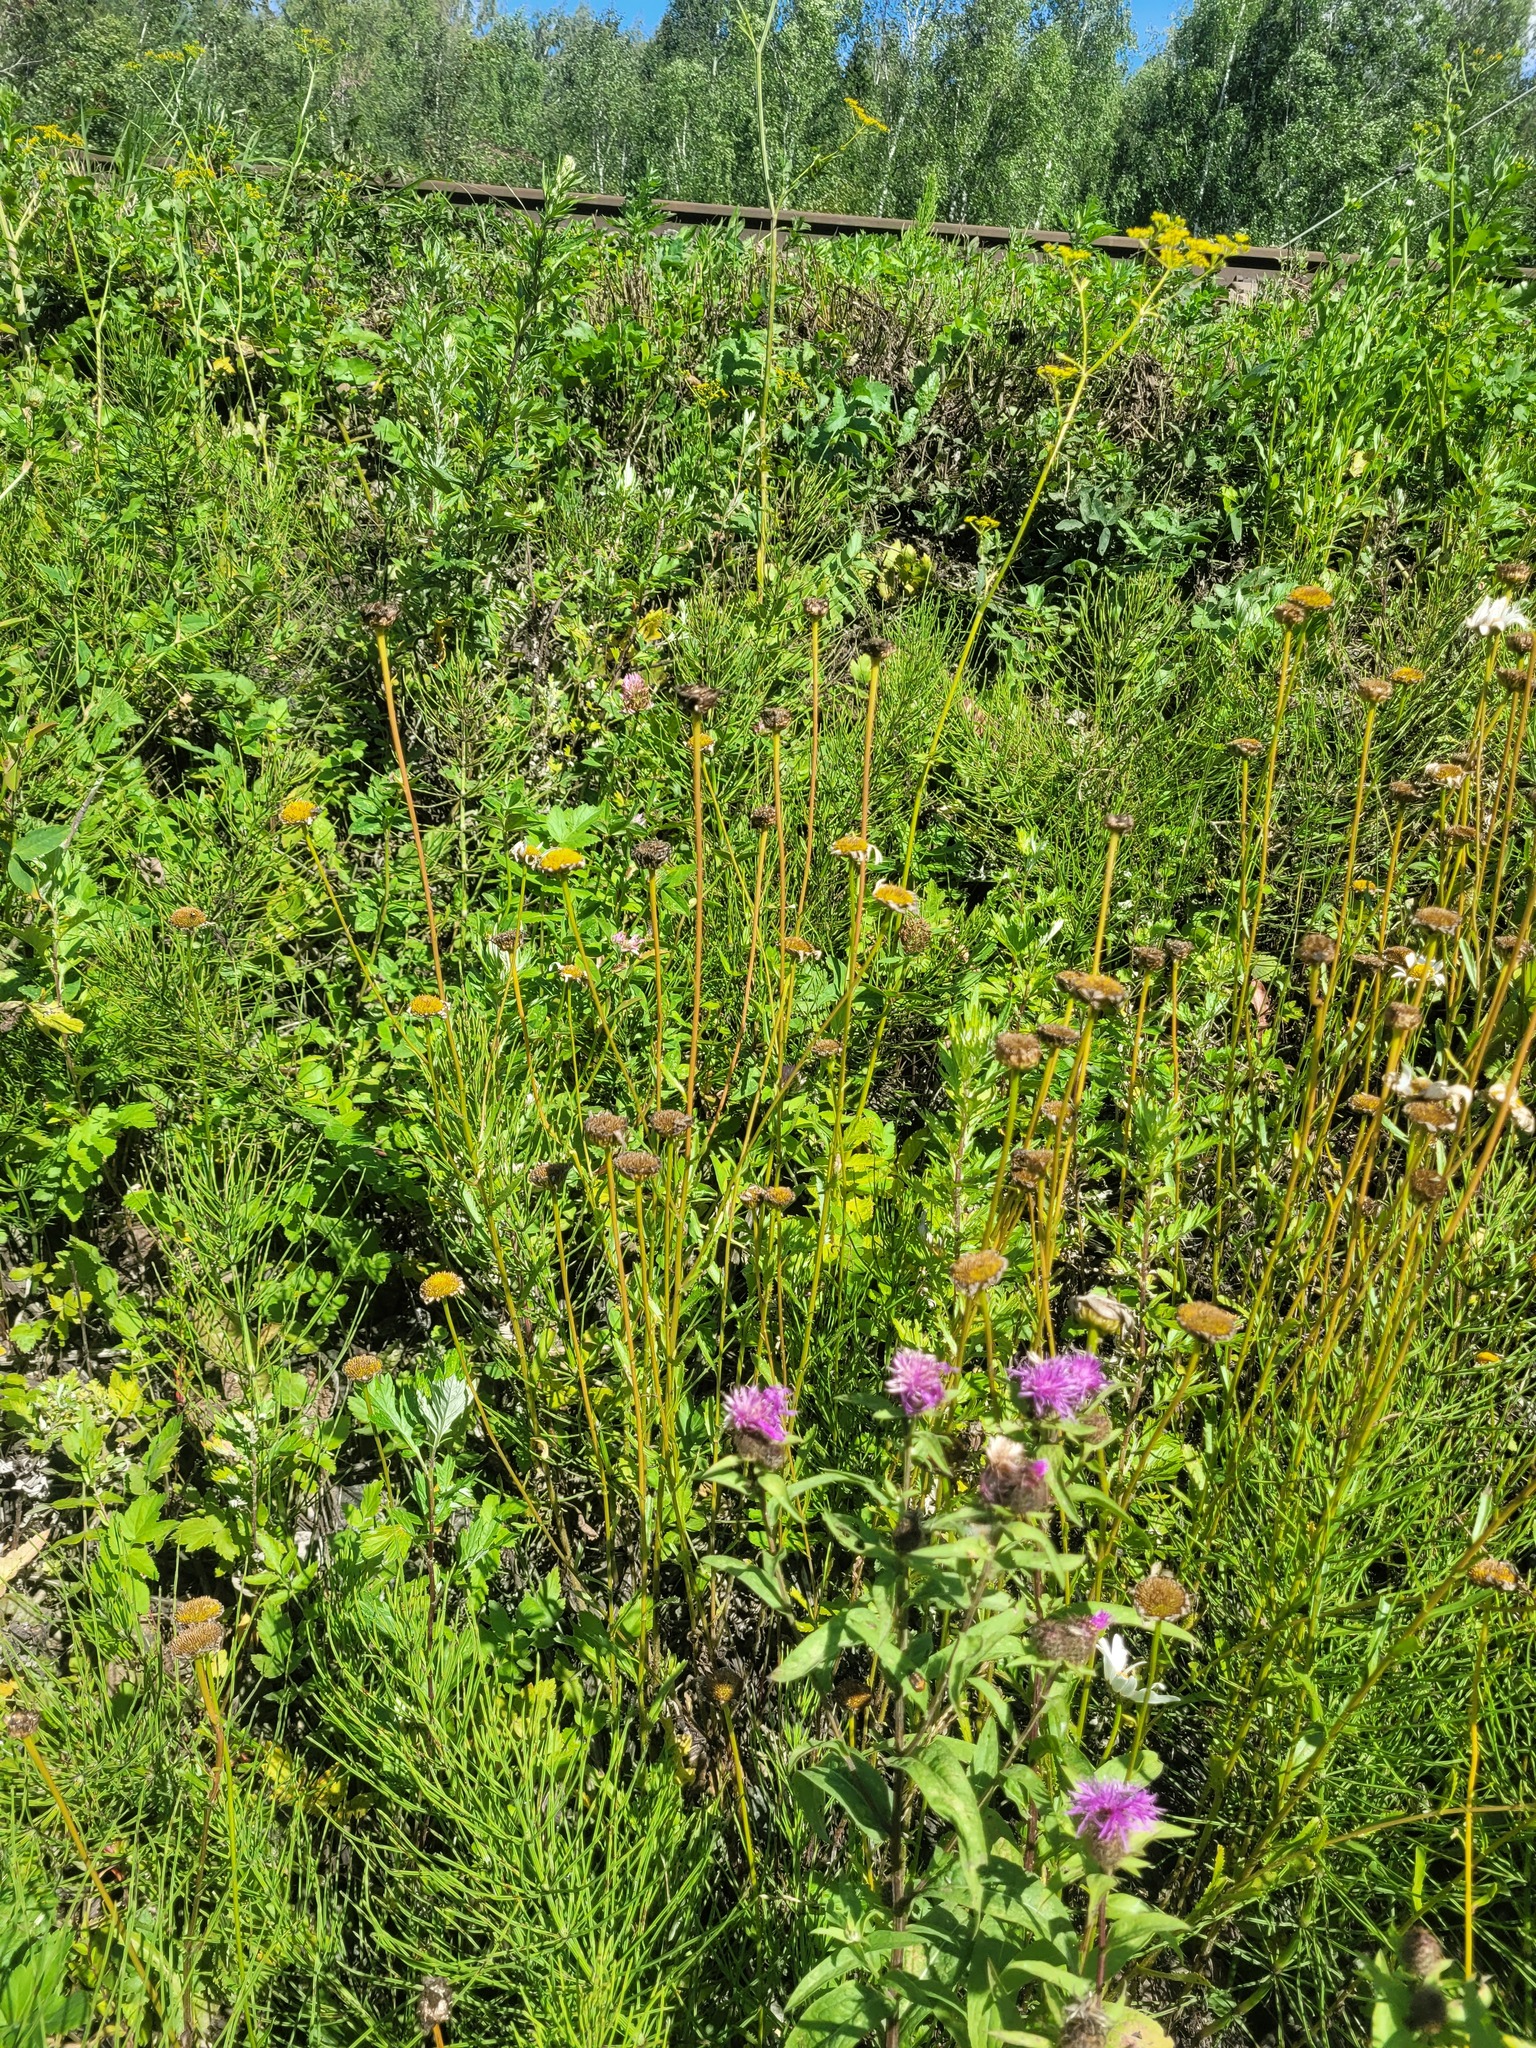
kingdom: Plantae
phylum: Tracheophyta
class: Magnoliopsida
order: Asterales
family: Asteraceae
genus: Leucanthemum
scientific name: Leucanthemum vulgare
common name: Oxeye daisy
